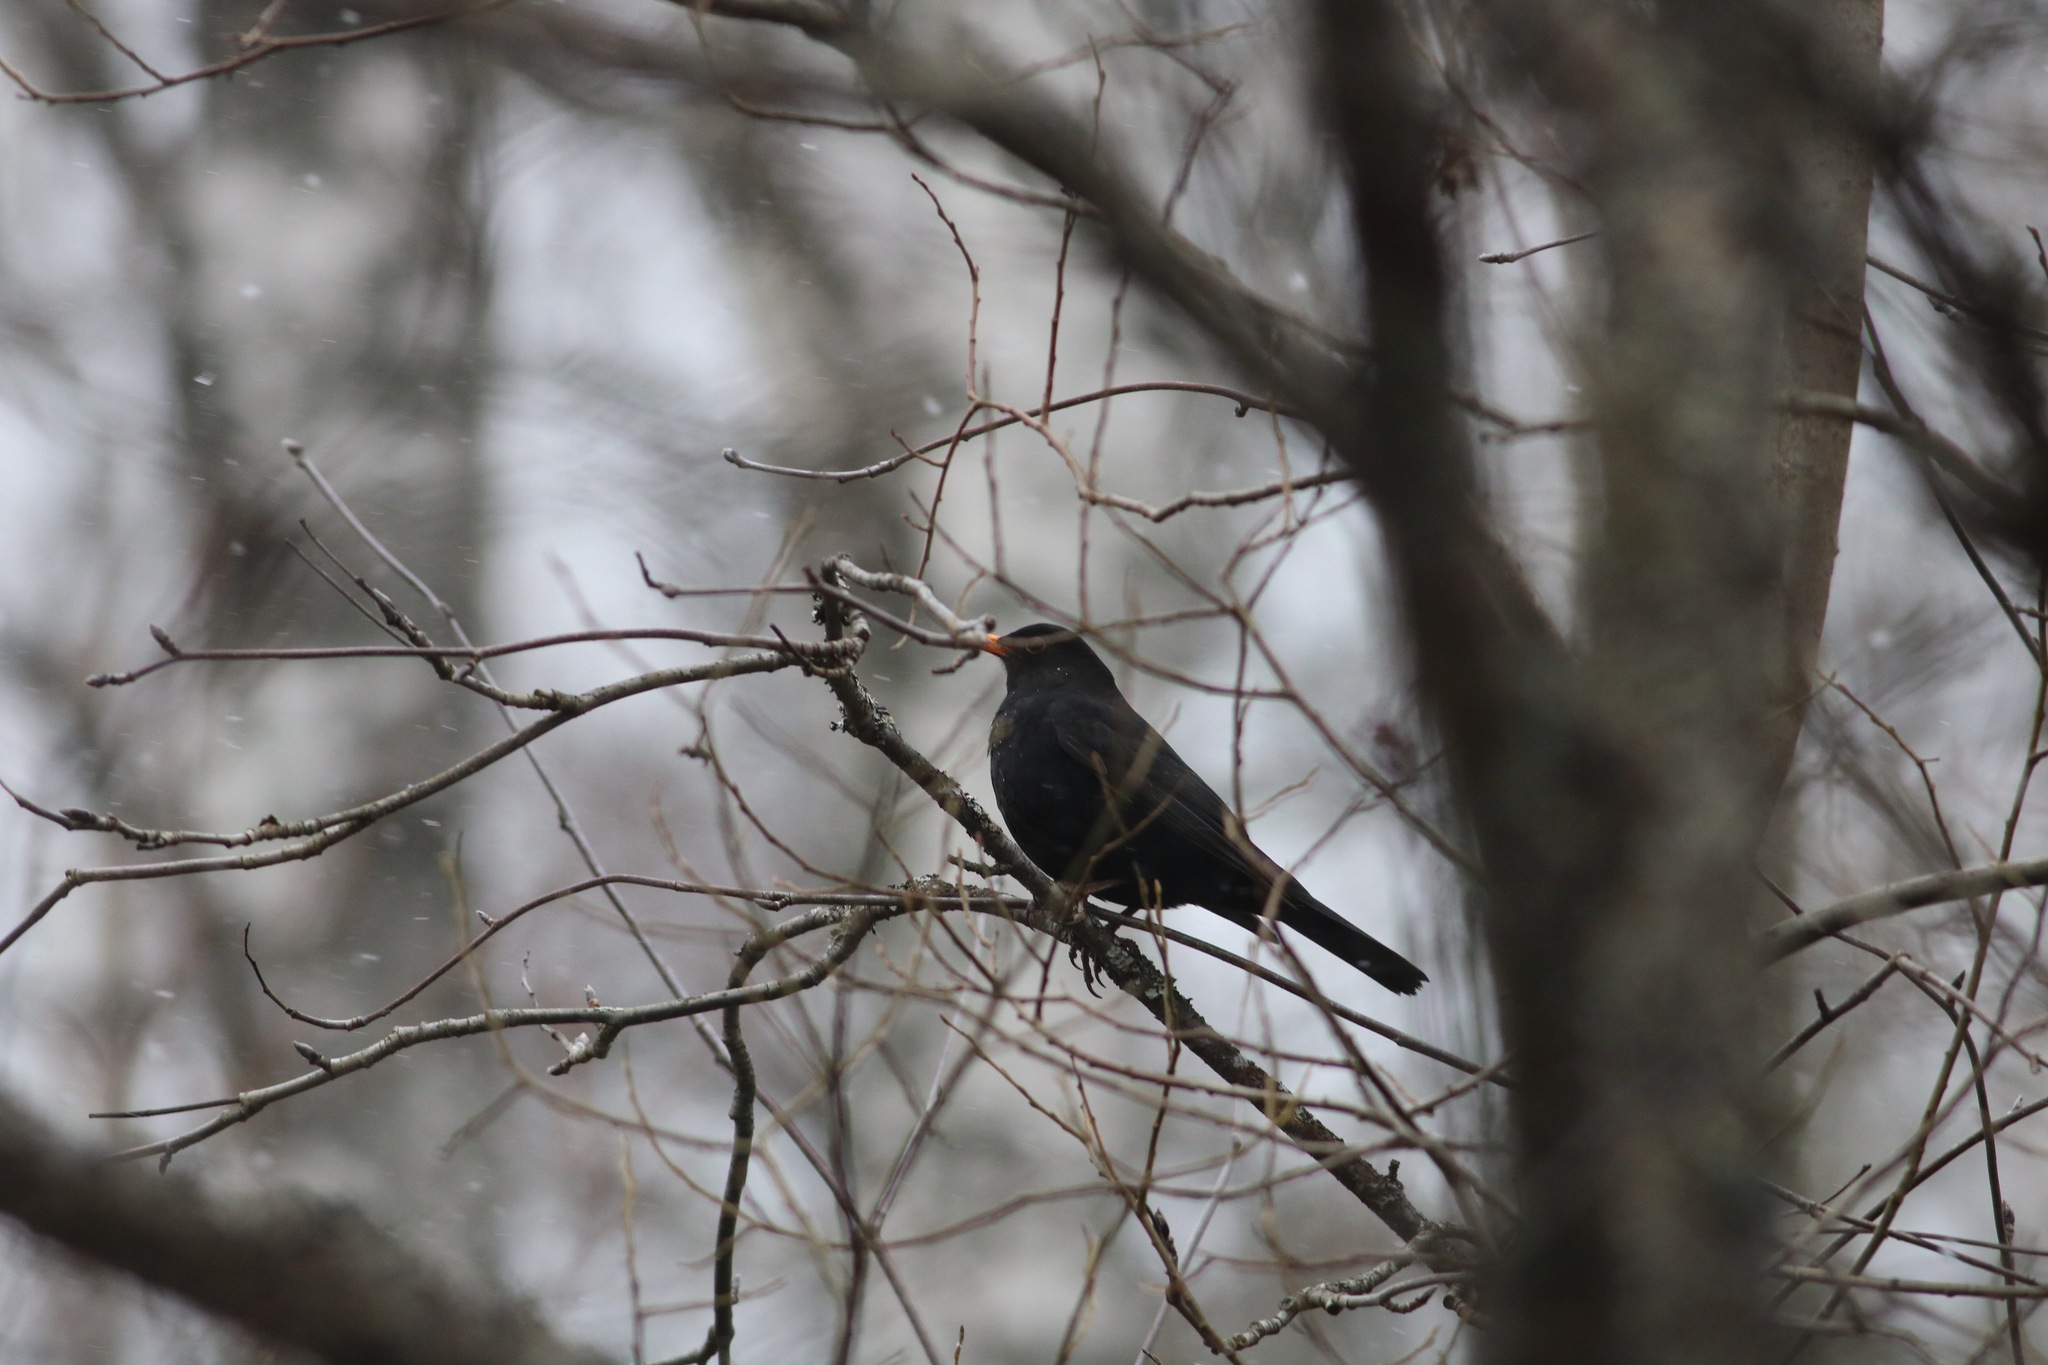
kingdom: Animalia
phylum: Chordata
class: Aves
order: Passeriformes
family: Turdidae
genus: Turdus
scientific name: Turdus merula
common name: Common blackbird
